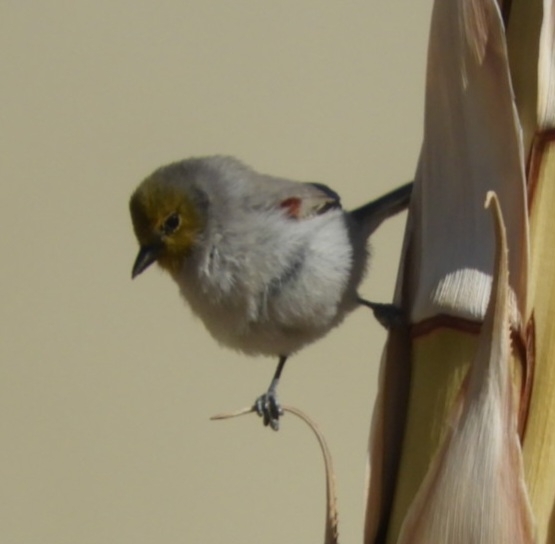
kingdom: Animalia
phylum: Chordata
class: Aves
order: Passeriformes
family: Remizidae
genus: Auriparus
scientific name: Auriparus flaviceps
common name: Verdin
